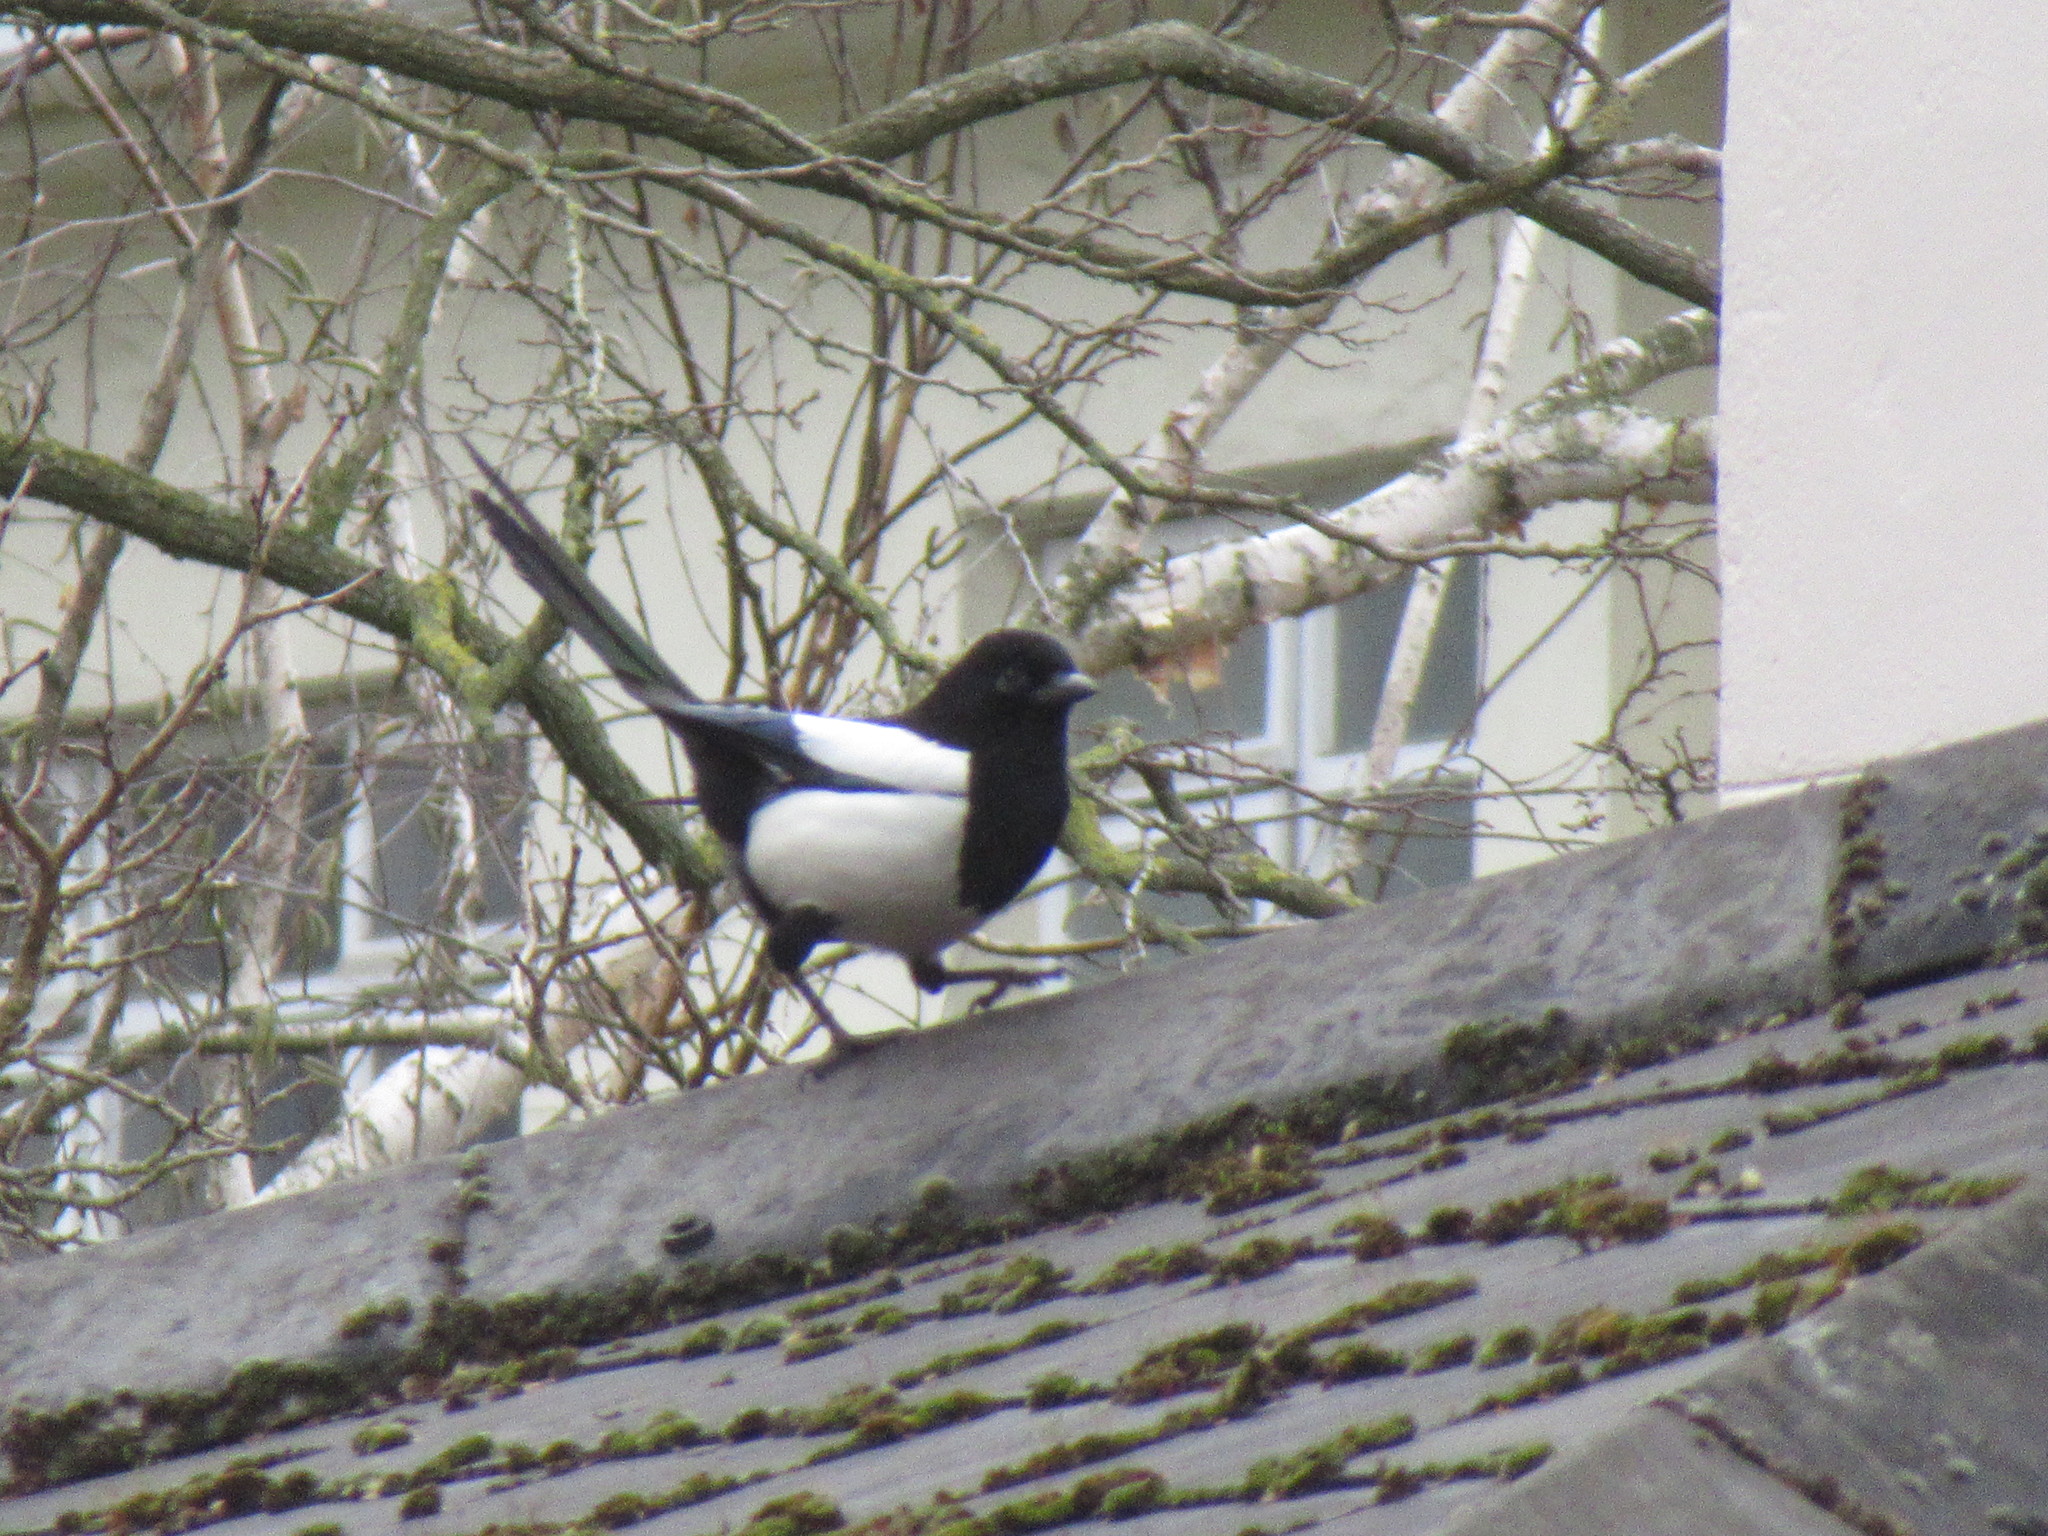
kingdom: Animalia
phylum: Chordata
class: Aves
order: Passeriformes
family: Corvidae
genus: Pica
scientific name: Pica pica
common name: Eurasian magpie
